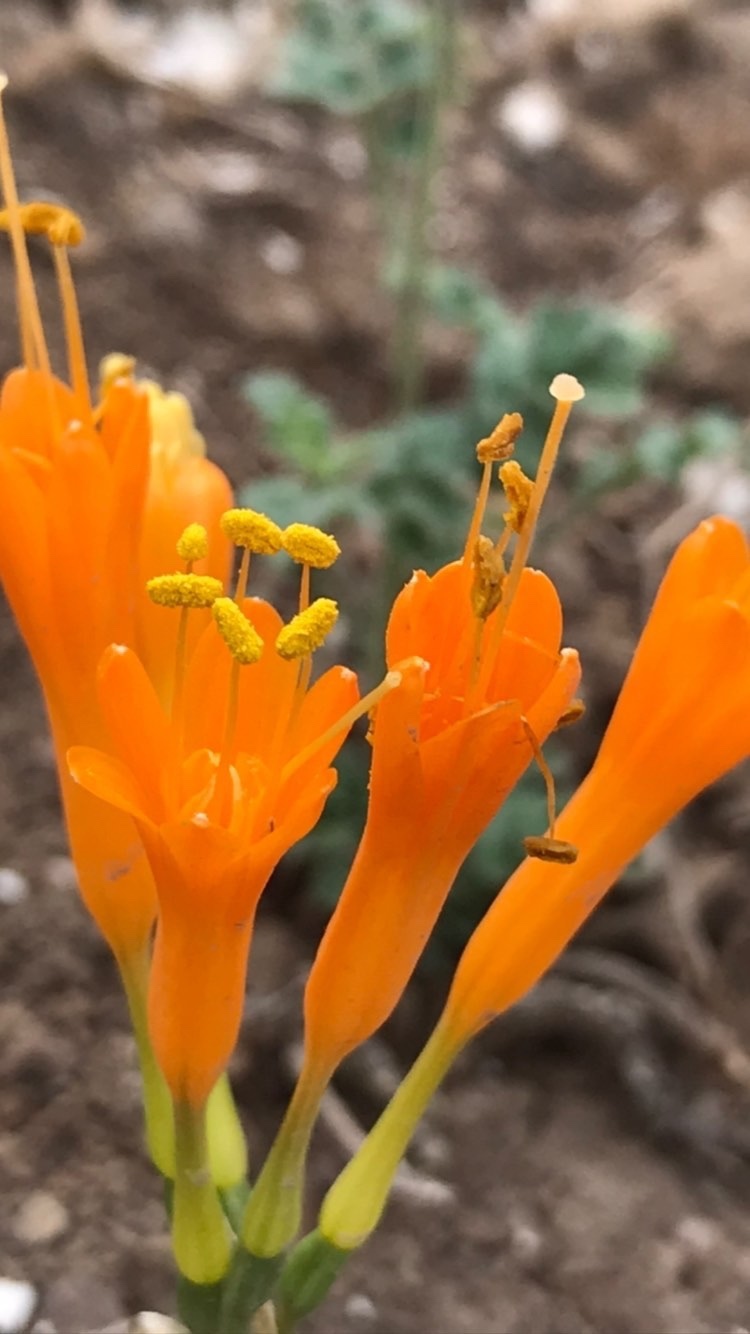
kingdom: Plantae
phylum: Tracheophyta
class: Liliopsida
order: Asparagales
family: Amaryllidaceae
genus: Stenomesson
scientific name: Stenomesson flavum
